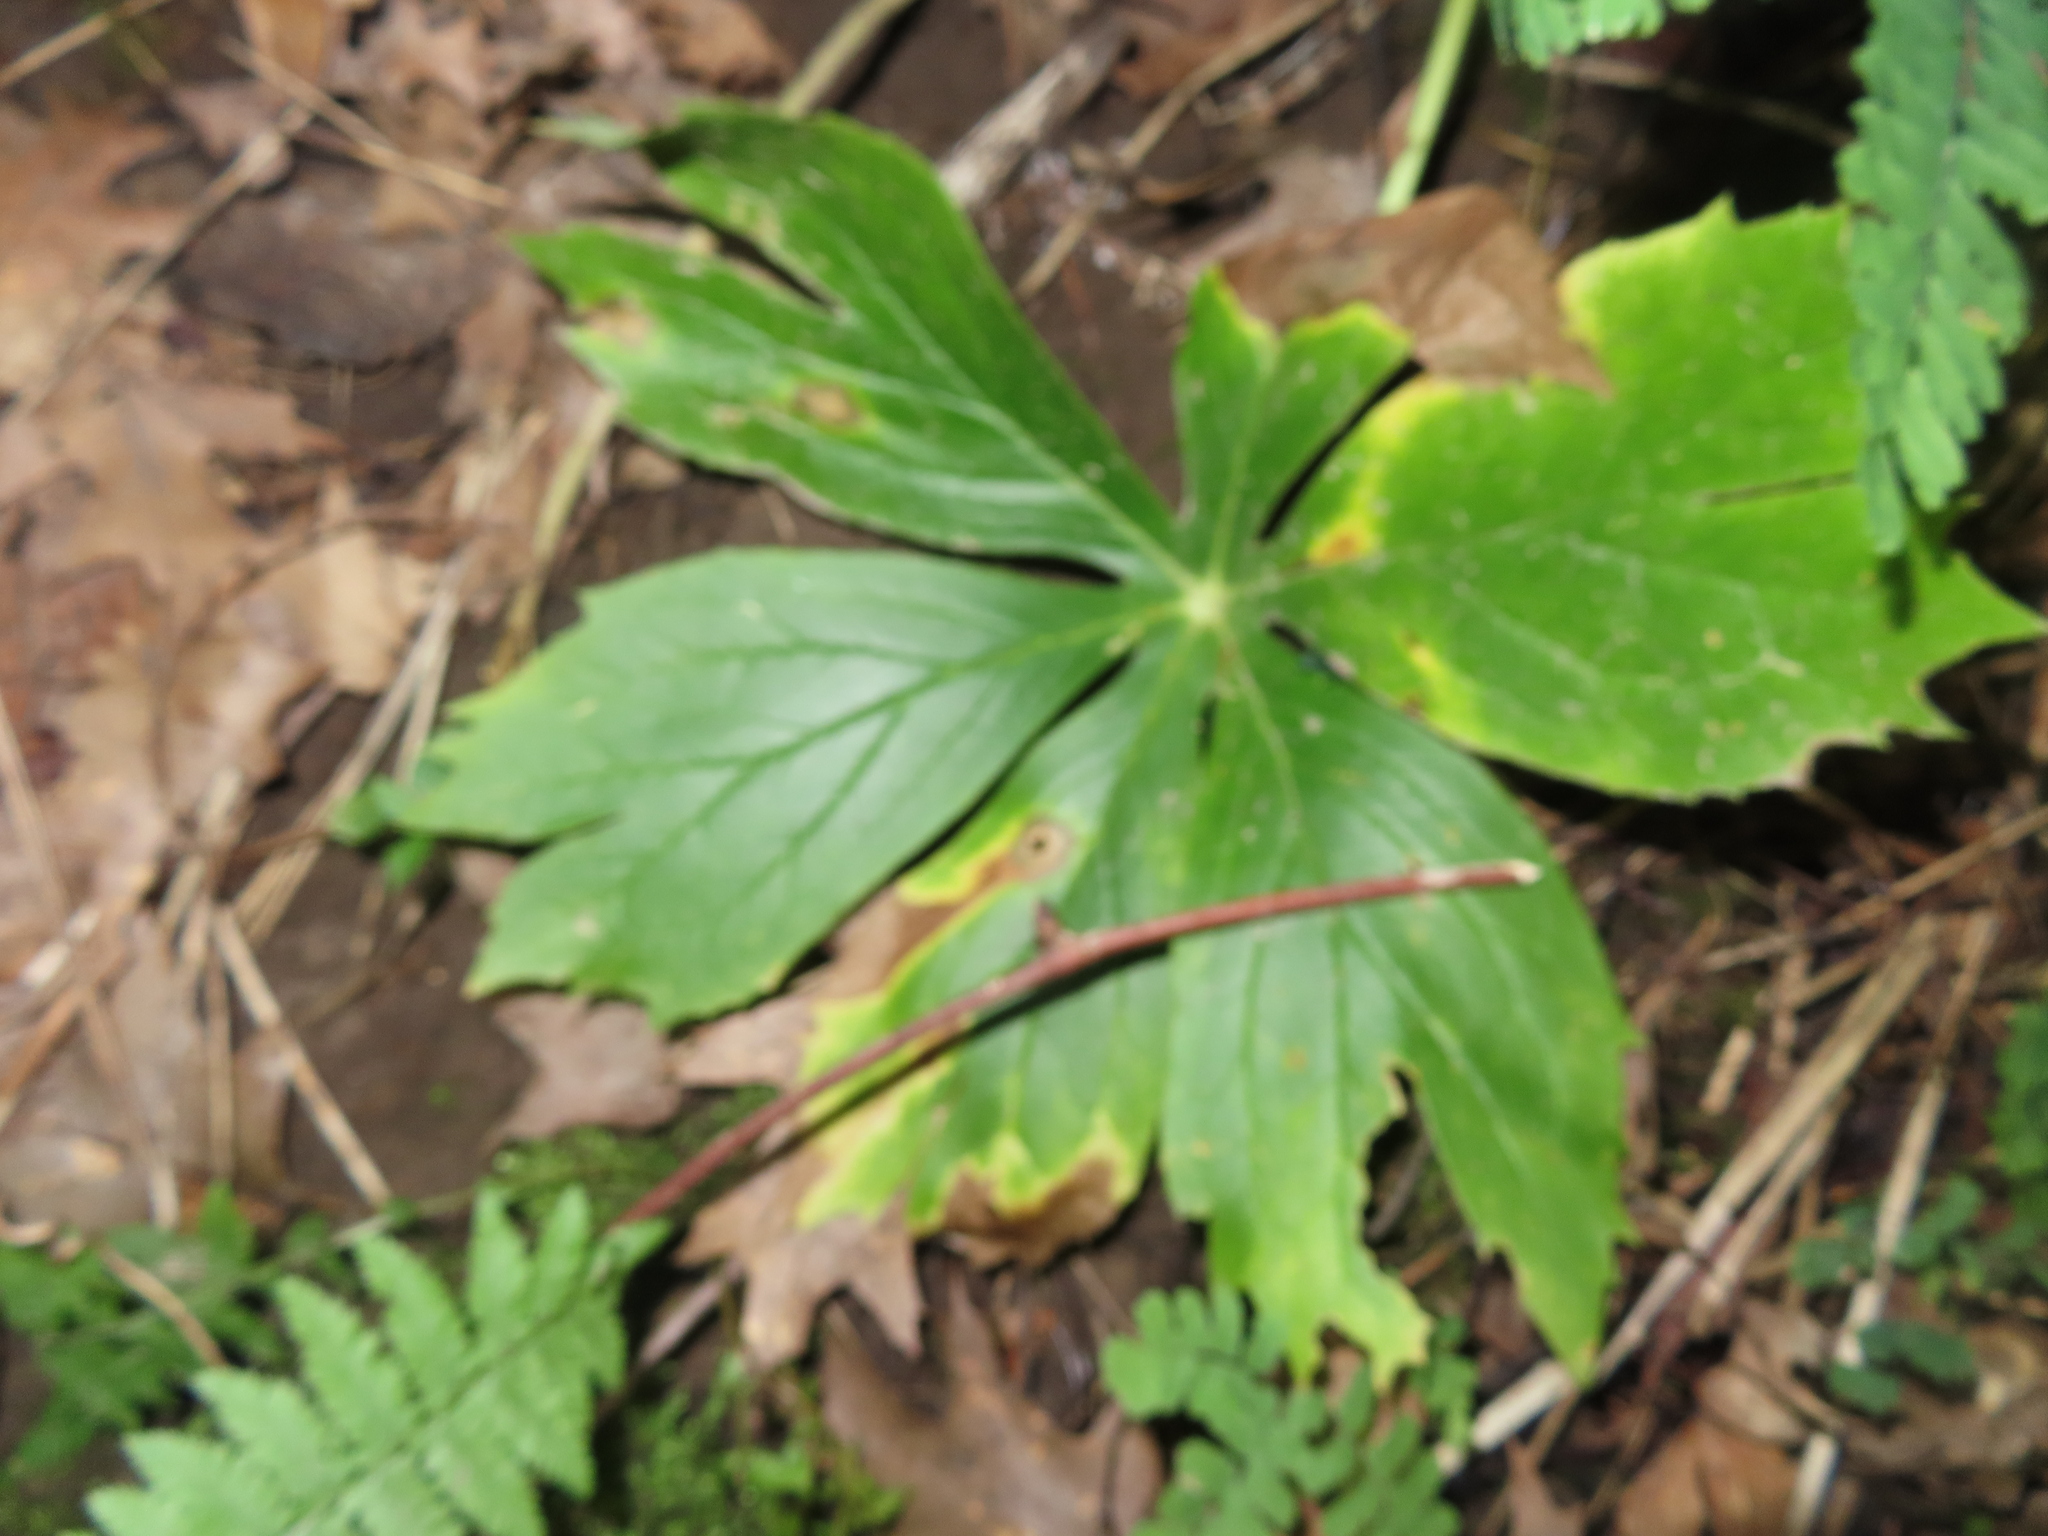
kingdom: Plantae
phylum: Tracheophyta
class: Magnoliopsida
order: Ranunculales
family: Berberidaceae
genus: Podophyllum
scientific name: Podophyllum peltatum
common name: Wild mandrake
